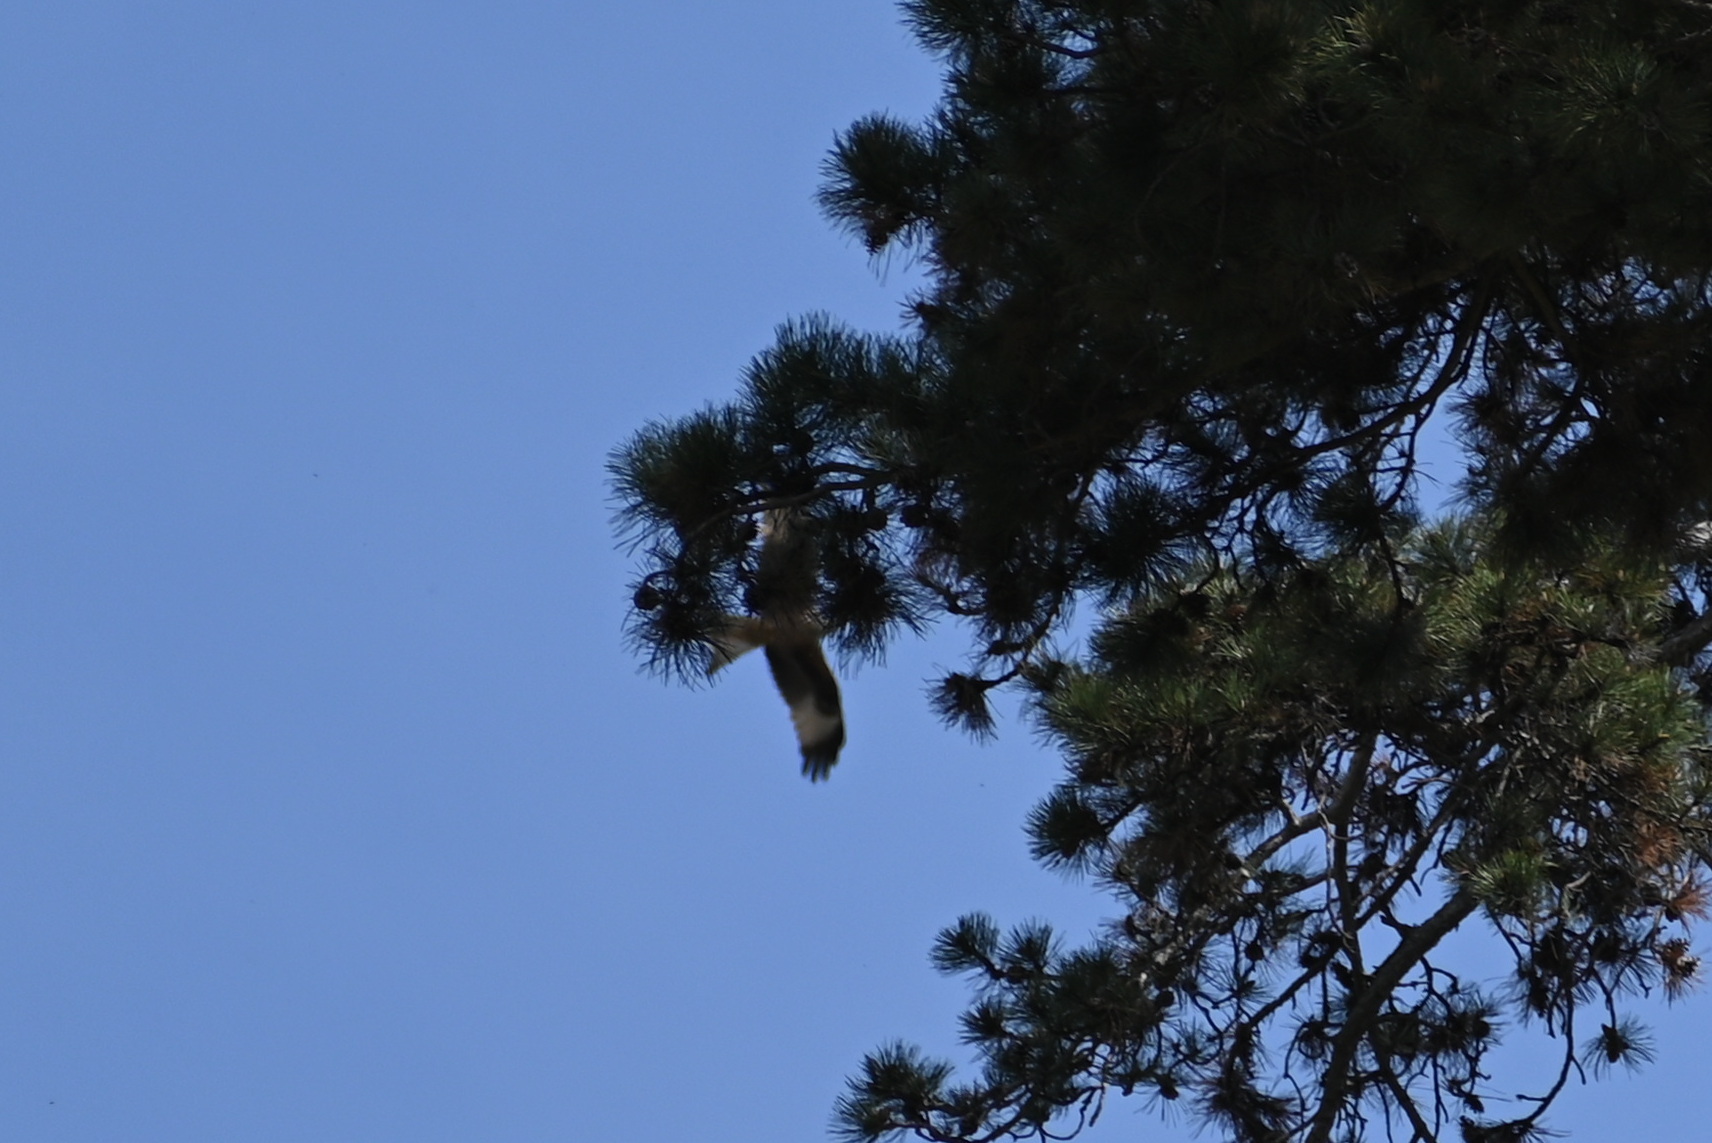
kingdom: Animalia
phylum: Chordata
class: Aves
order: Accipitriformes
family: Accipitridae
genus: Milvus
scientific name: Milvus milvus
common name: Red kite
